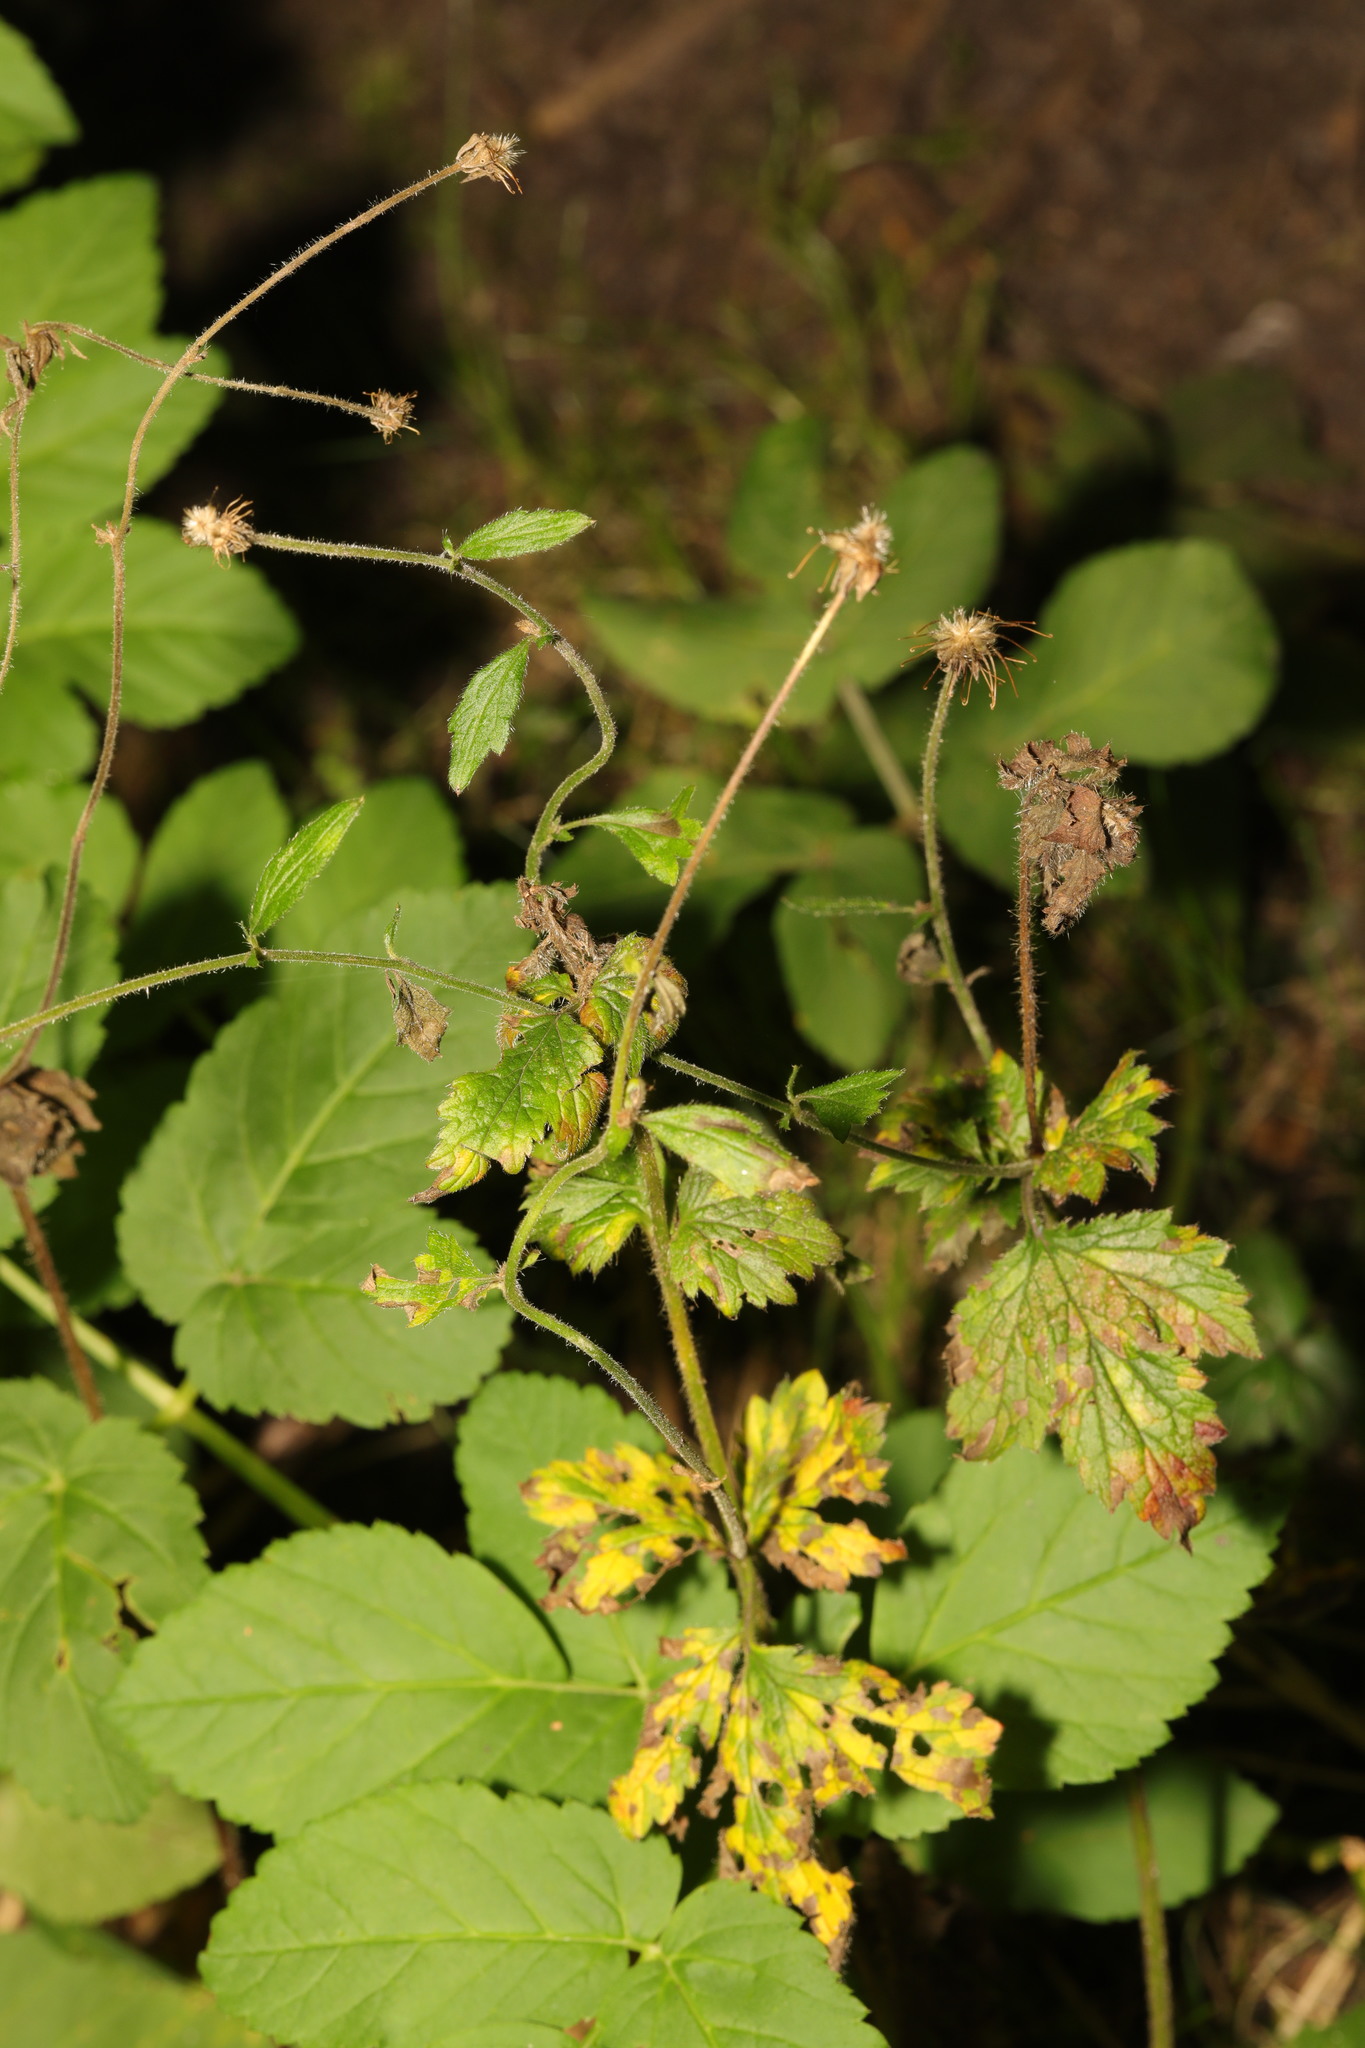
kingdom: Plantae
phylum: Tracheophyta
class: Magnoliopsida
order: Rosales
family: Rosaceae
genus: Geum
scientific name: Geum urbanum
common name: Wood avens
